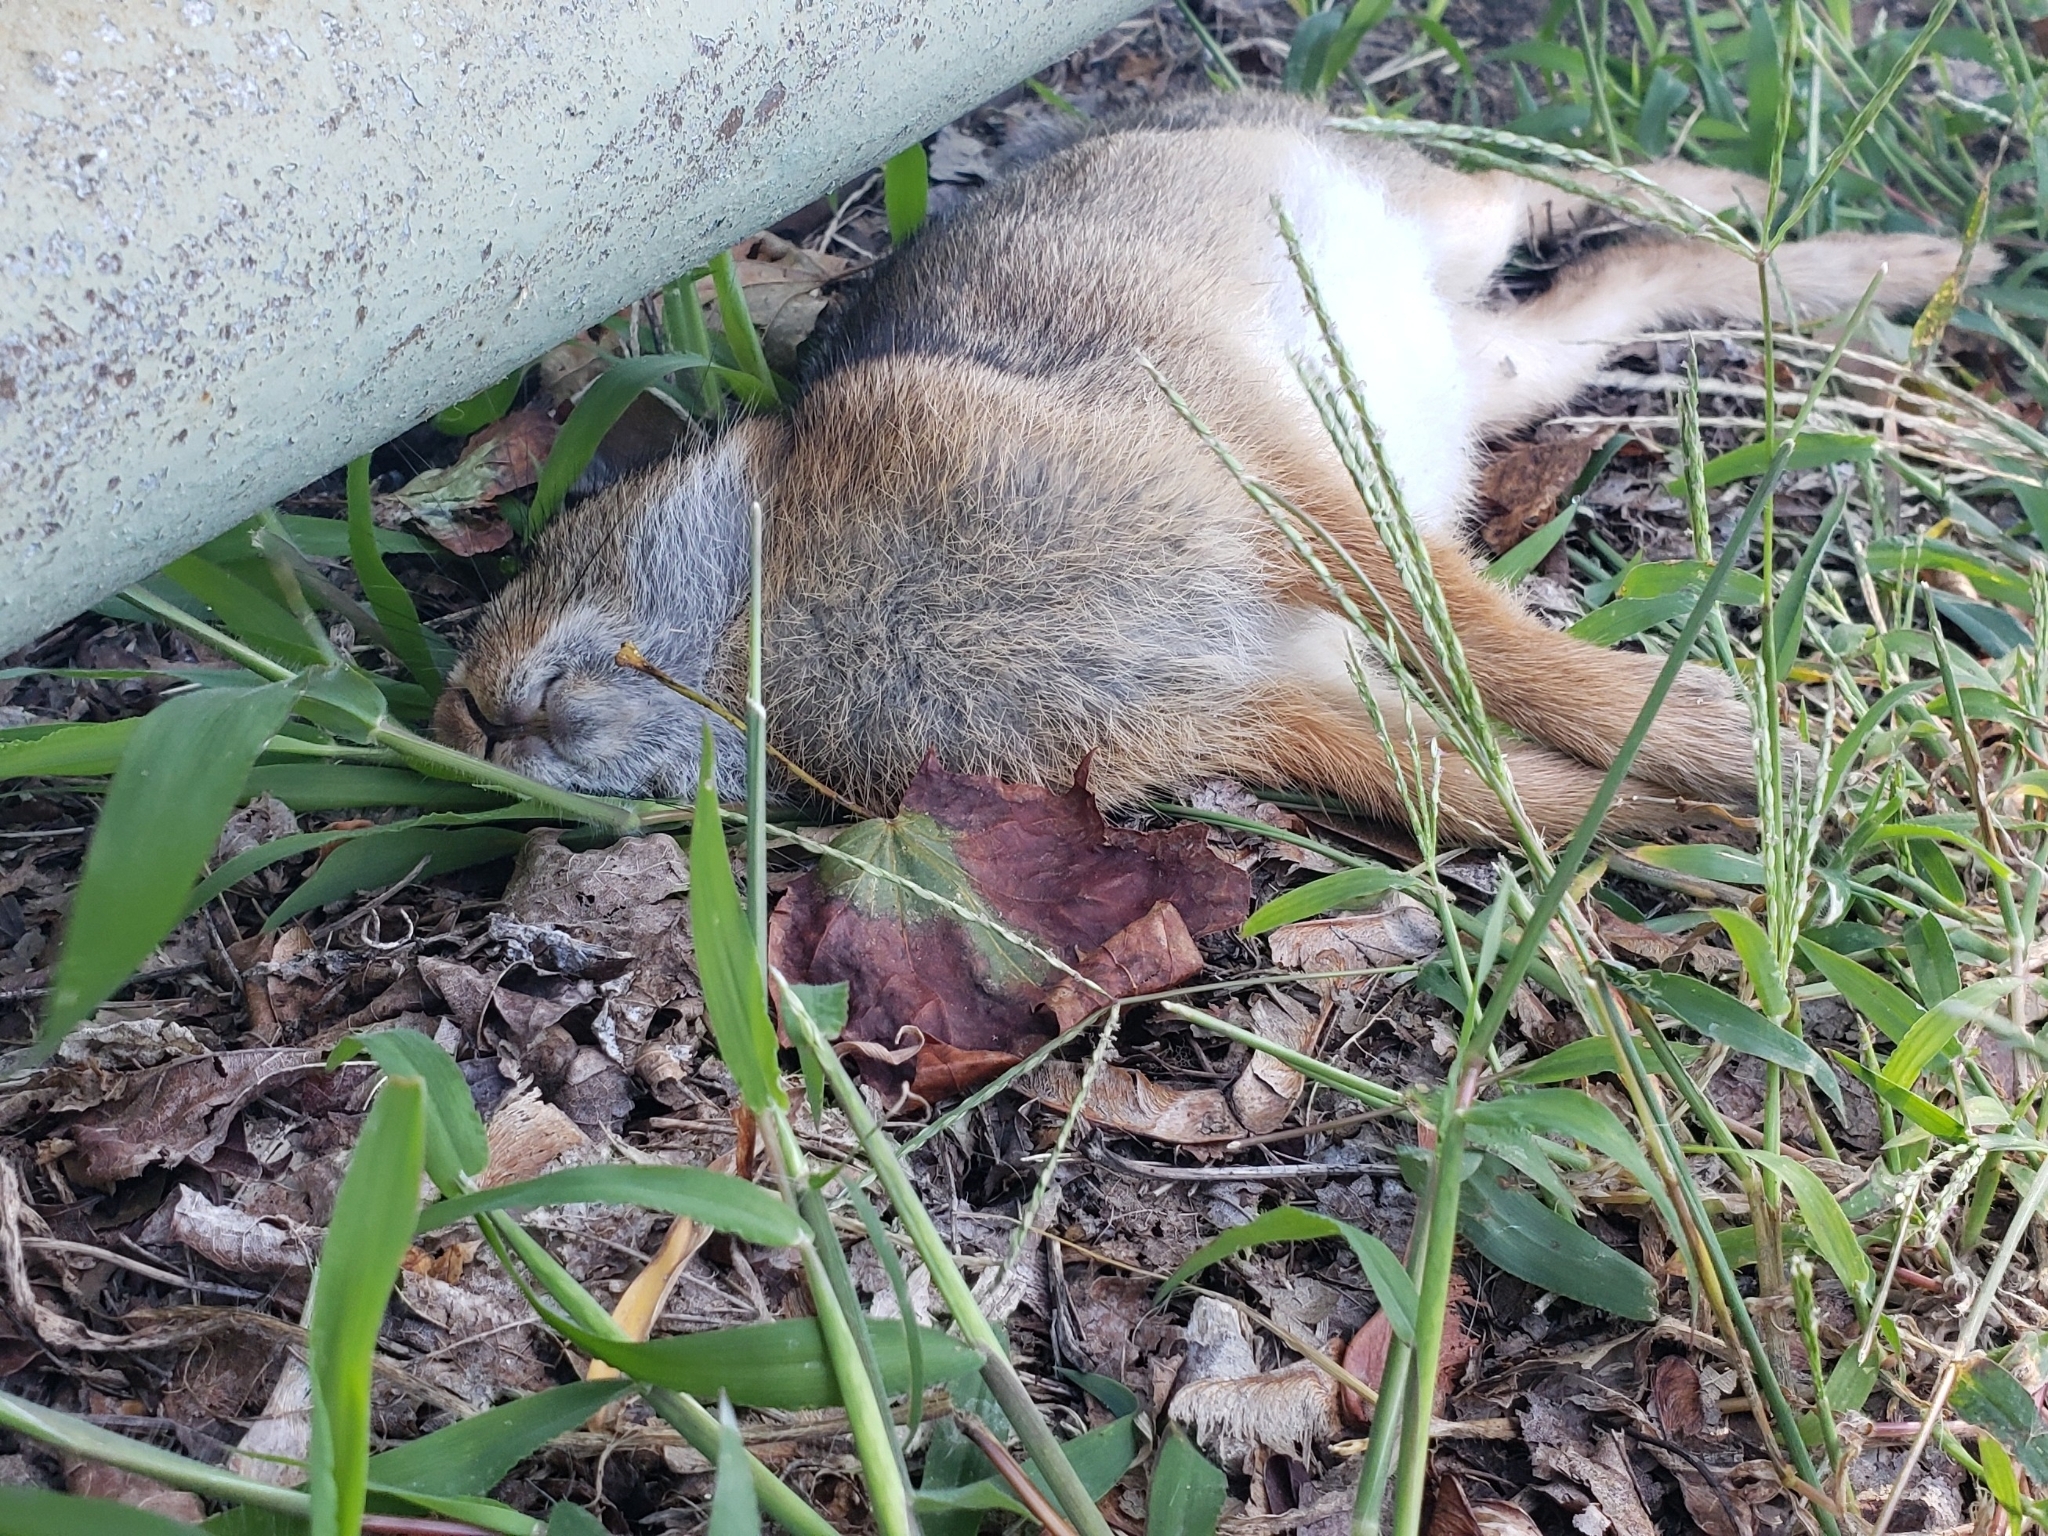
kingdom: Animalia
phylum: Chordata
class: Mammalia
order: Lagomorpha
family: Leporidae
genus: Sylvilagus
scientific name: Sylvilagus floridanus
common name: Eastern cottontail
